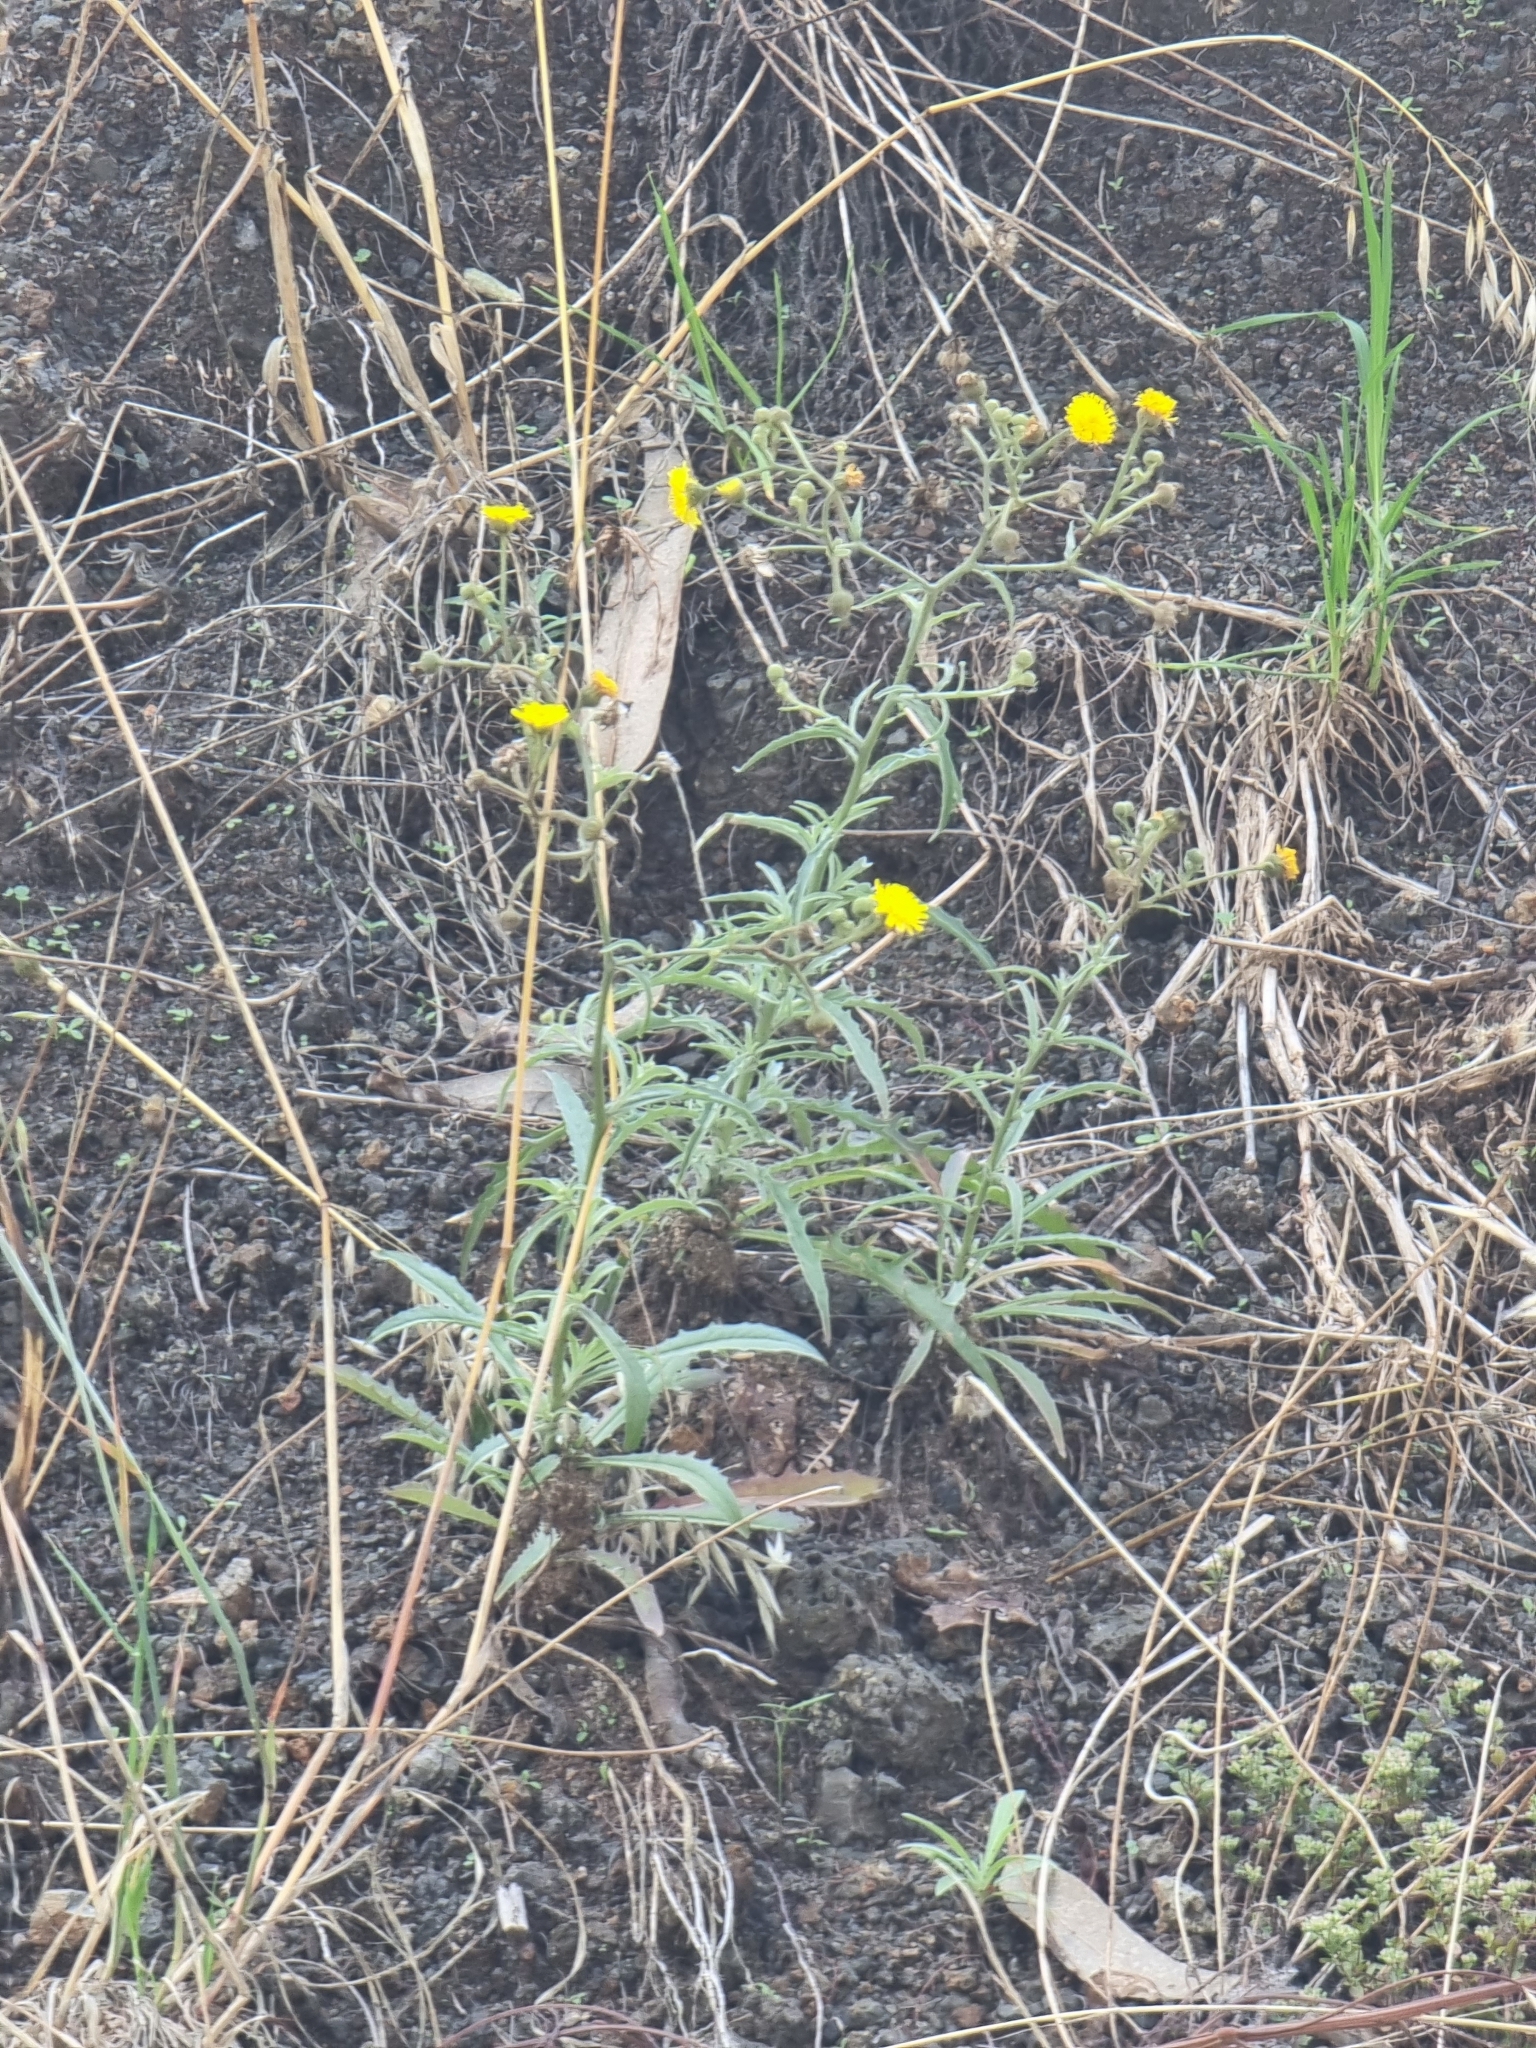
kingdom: Plantae
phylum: Tracheophyta
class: Magnoliopsida
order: Asterales
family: Asteraceae
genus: Andryala
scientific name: Andryala glandulosa
